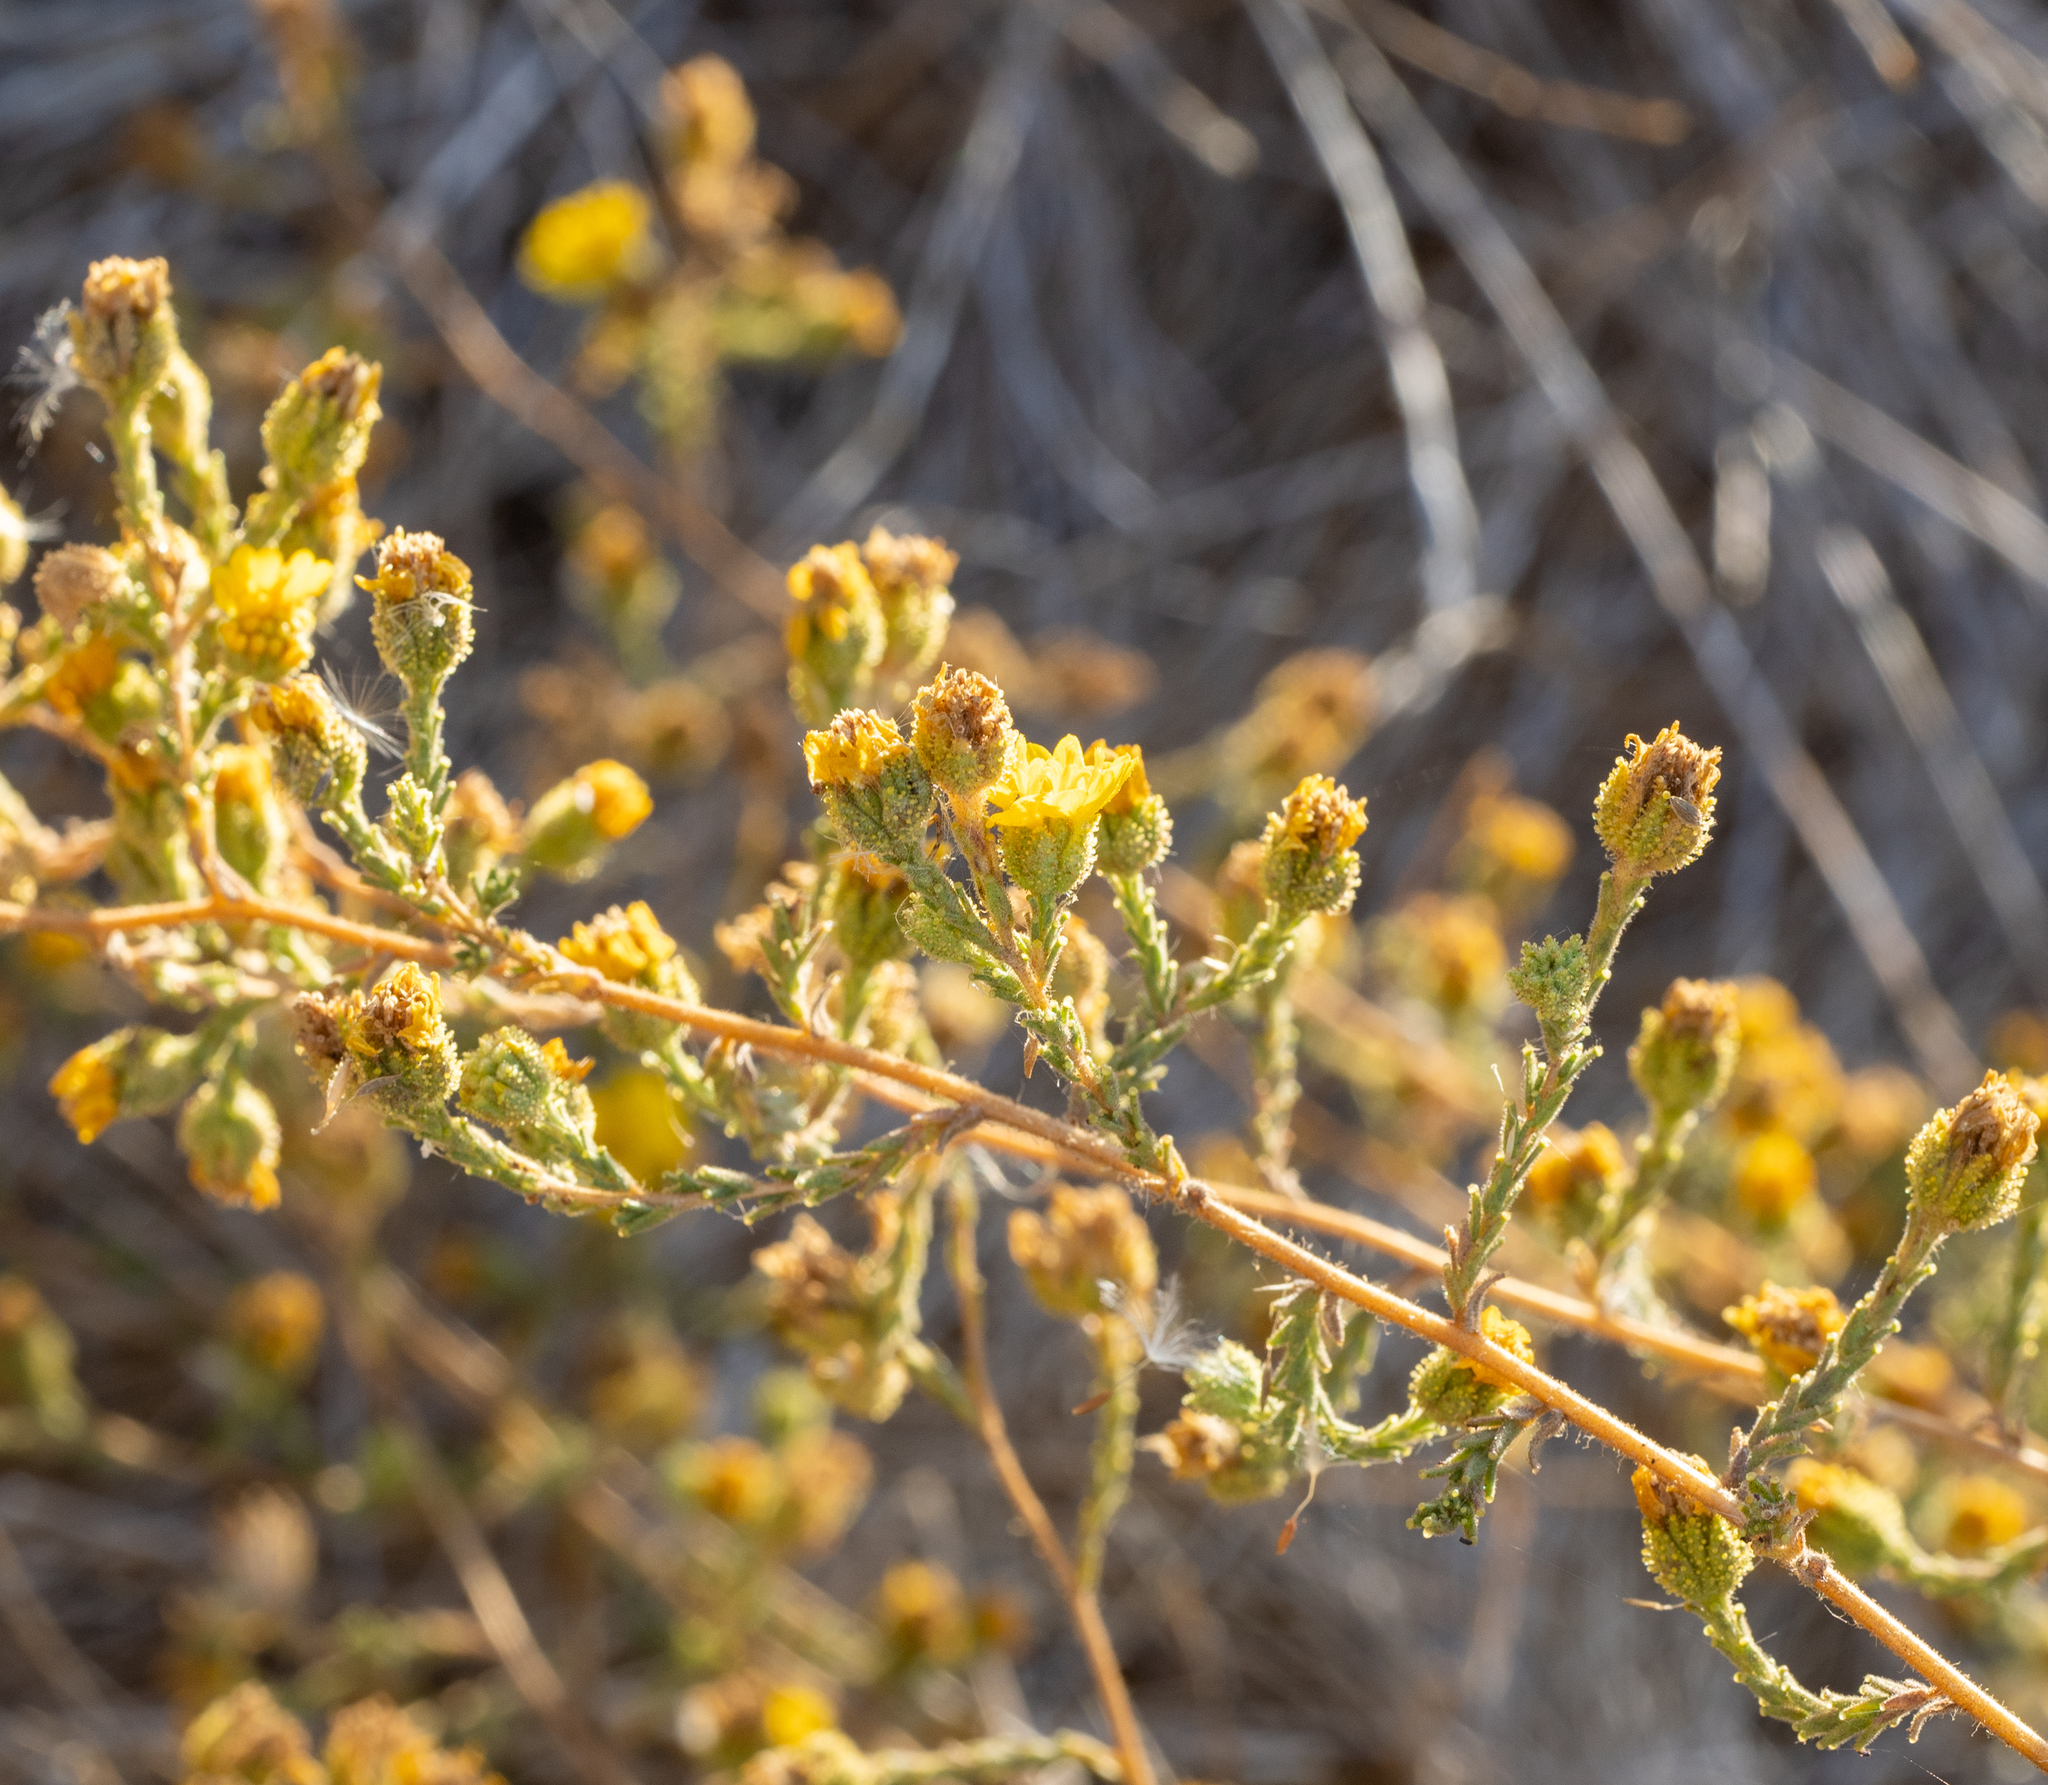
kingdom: Plantae
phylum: Tracheophyta
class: Magnoliopsida
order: Asterales
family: Asteraceae
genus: Holocarpha
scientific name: Holocarpha heermannii
